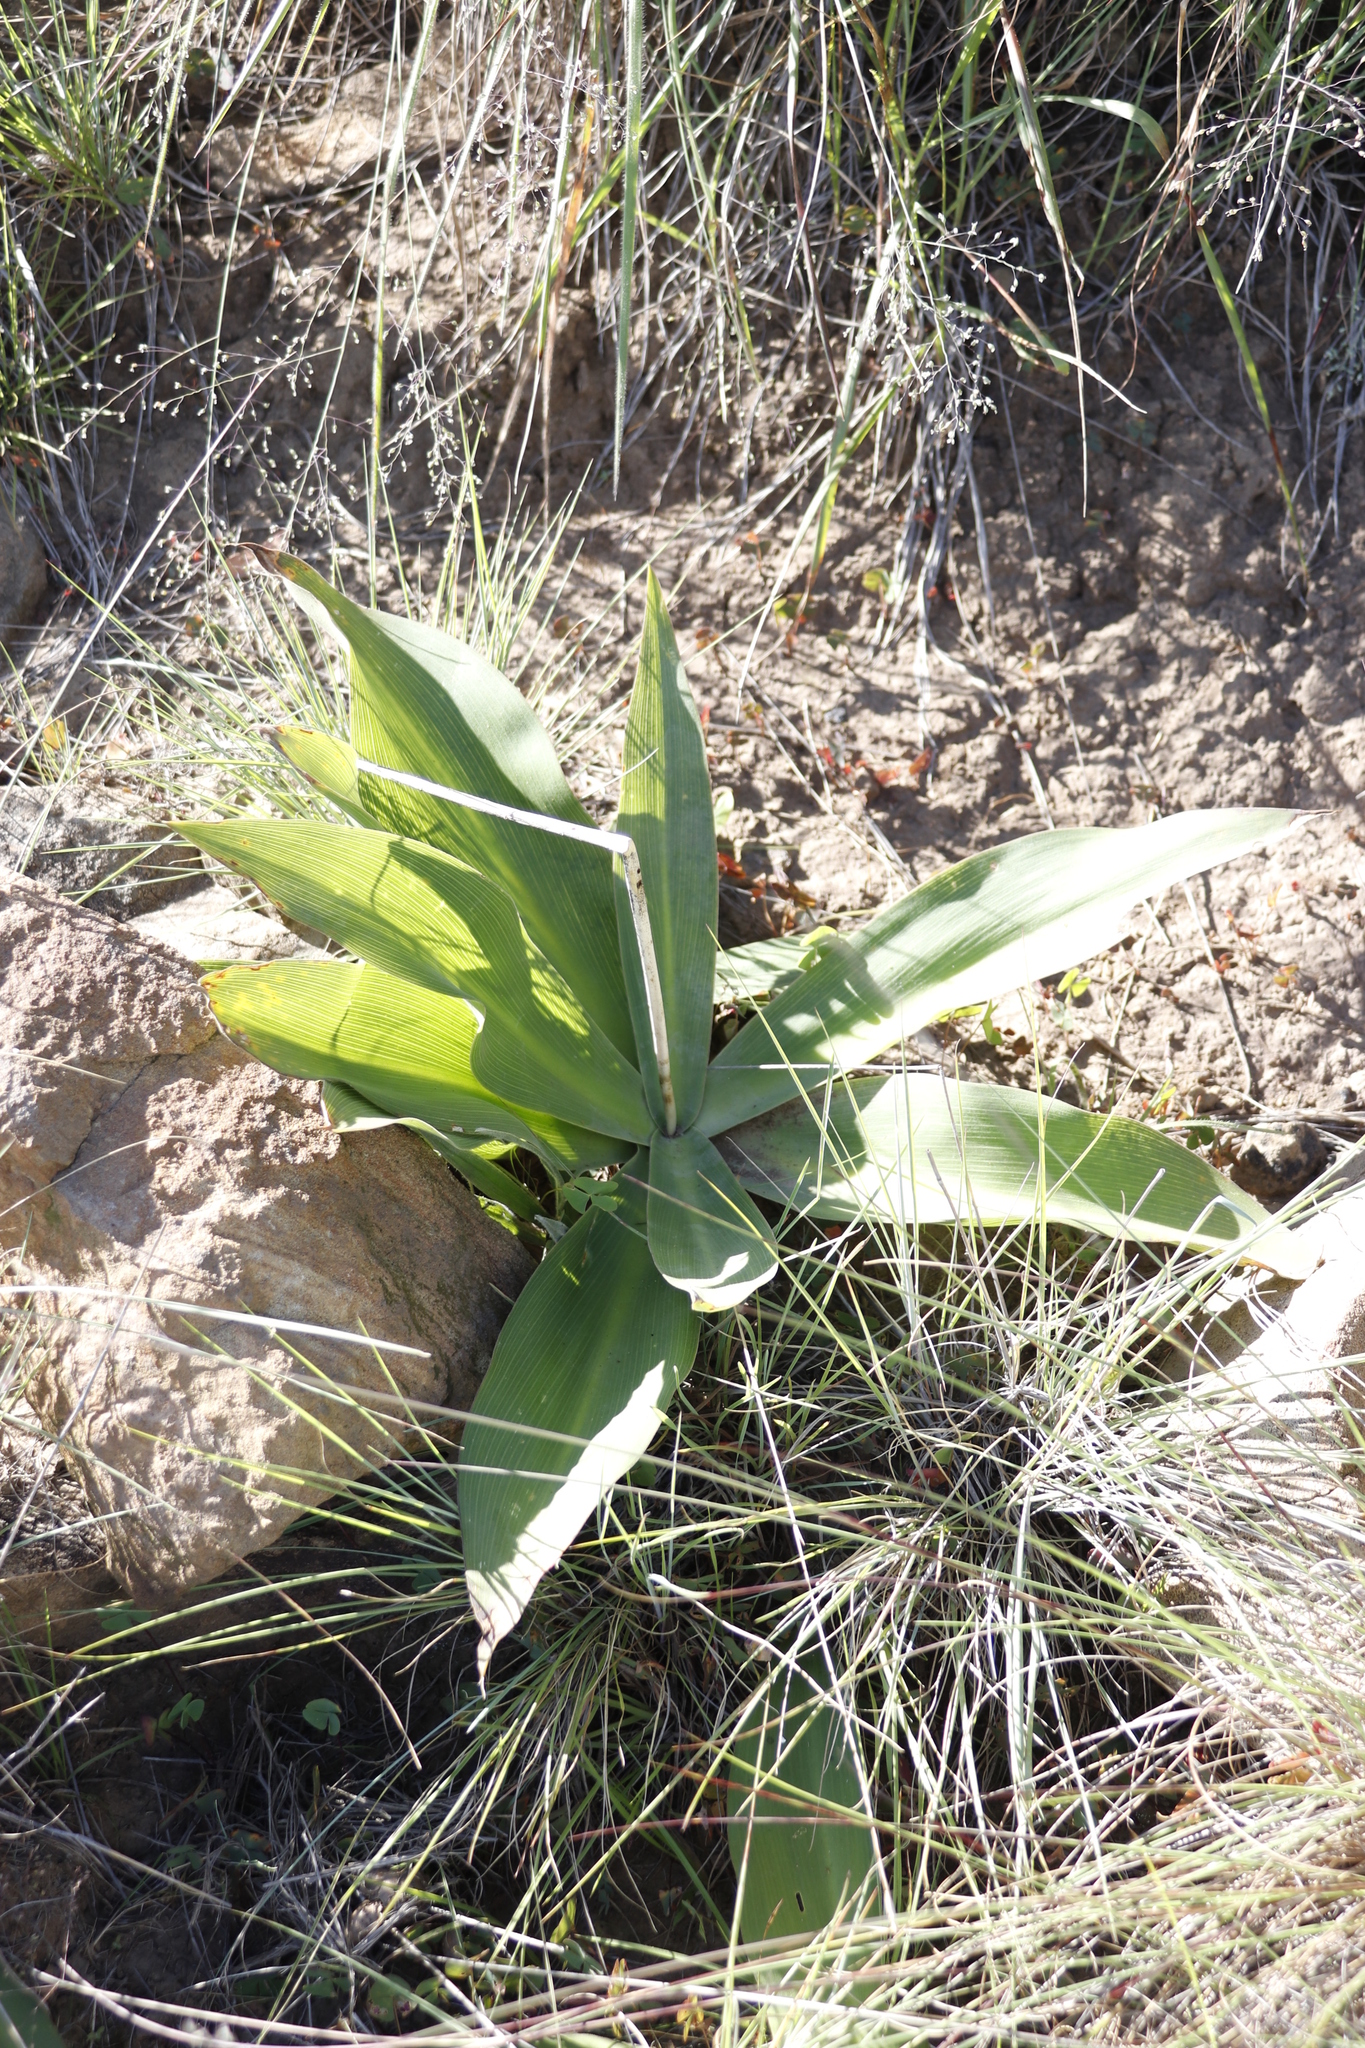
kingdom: Plantae
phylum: Tracheophyta
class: Liliopsida
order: Asparagales
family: Asparagaceae
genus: Merwilla
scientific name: Merwilla plumbea
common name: Blue-squill
